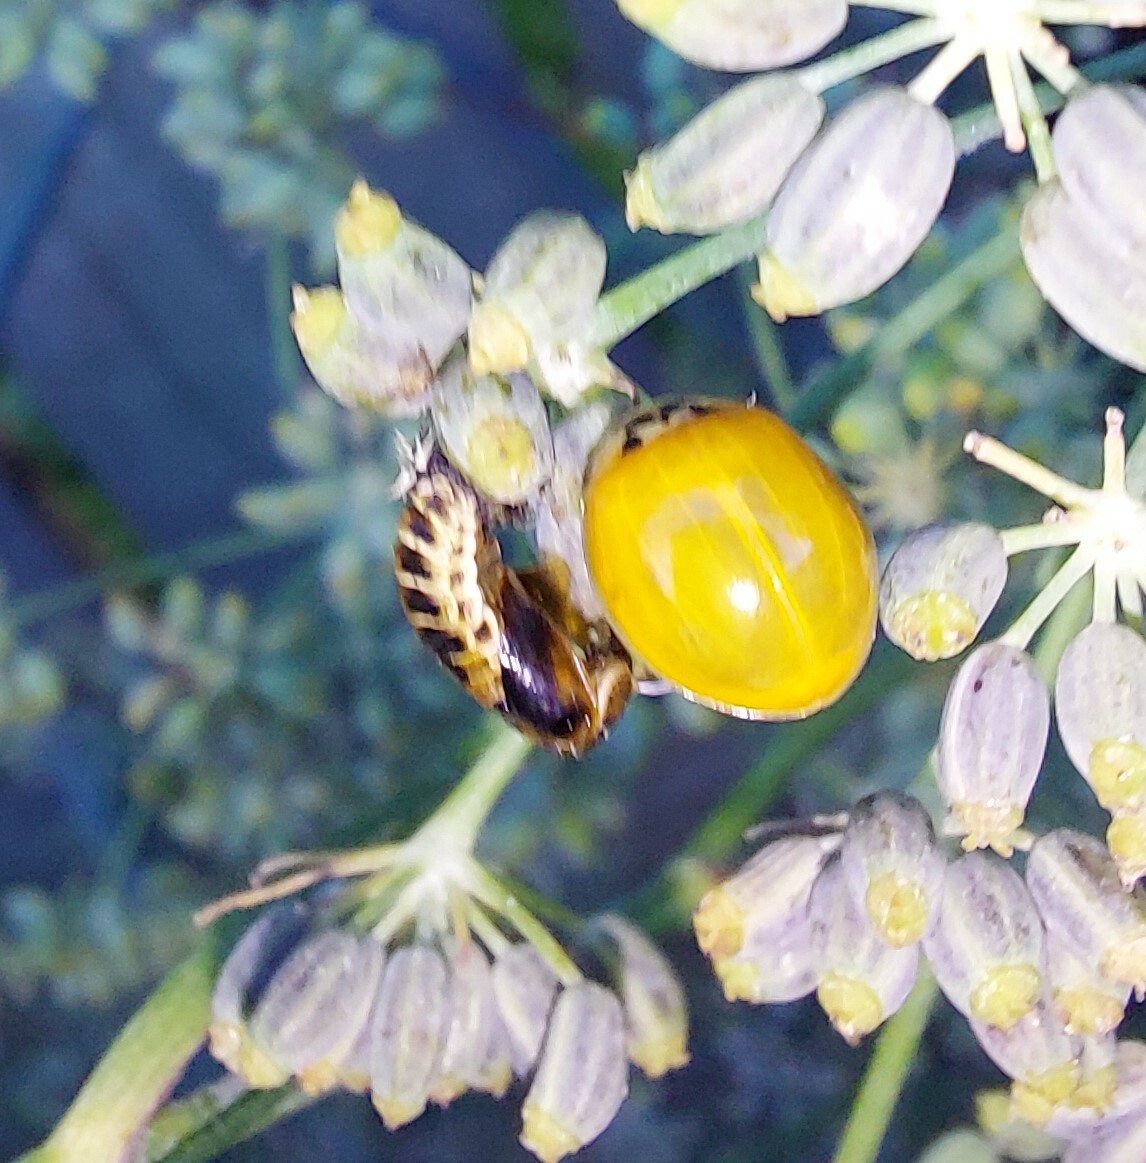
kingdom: Animalia
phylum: Arthropoda
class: Insecta
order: Coleoptera
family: Coccinellidae
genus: Harmonia
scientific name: Harmonia axyridis
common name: Harlequin ladybird
